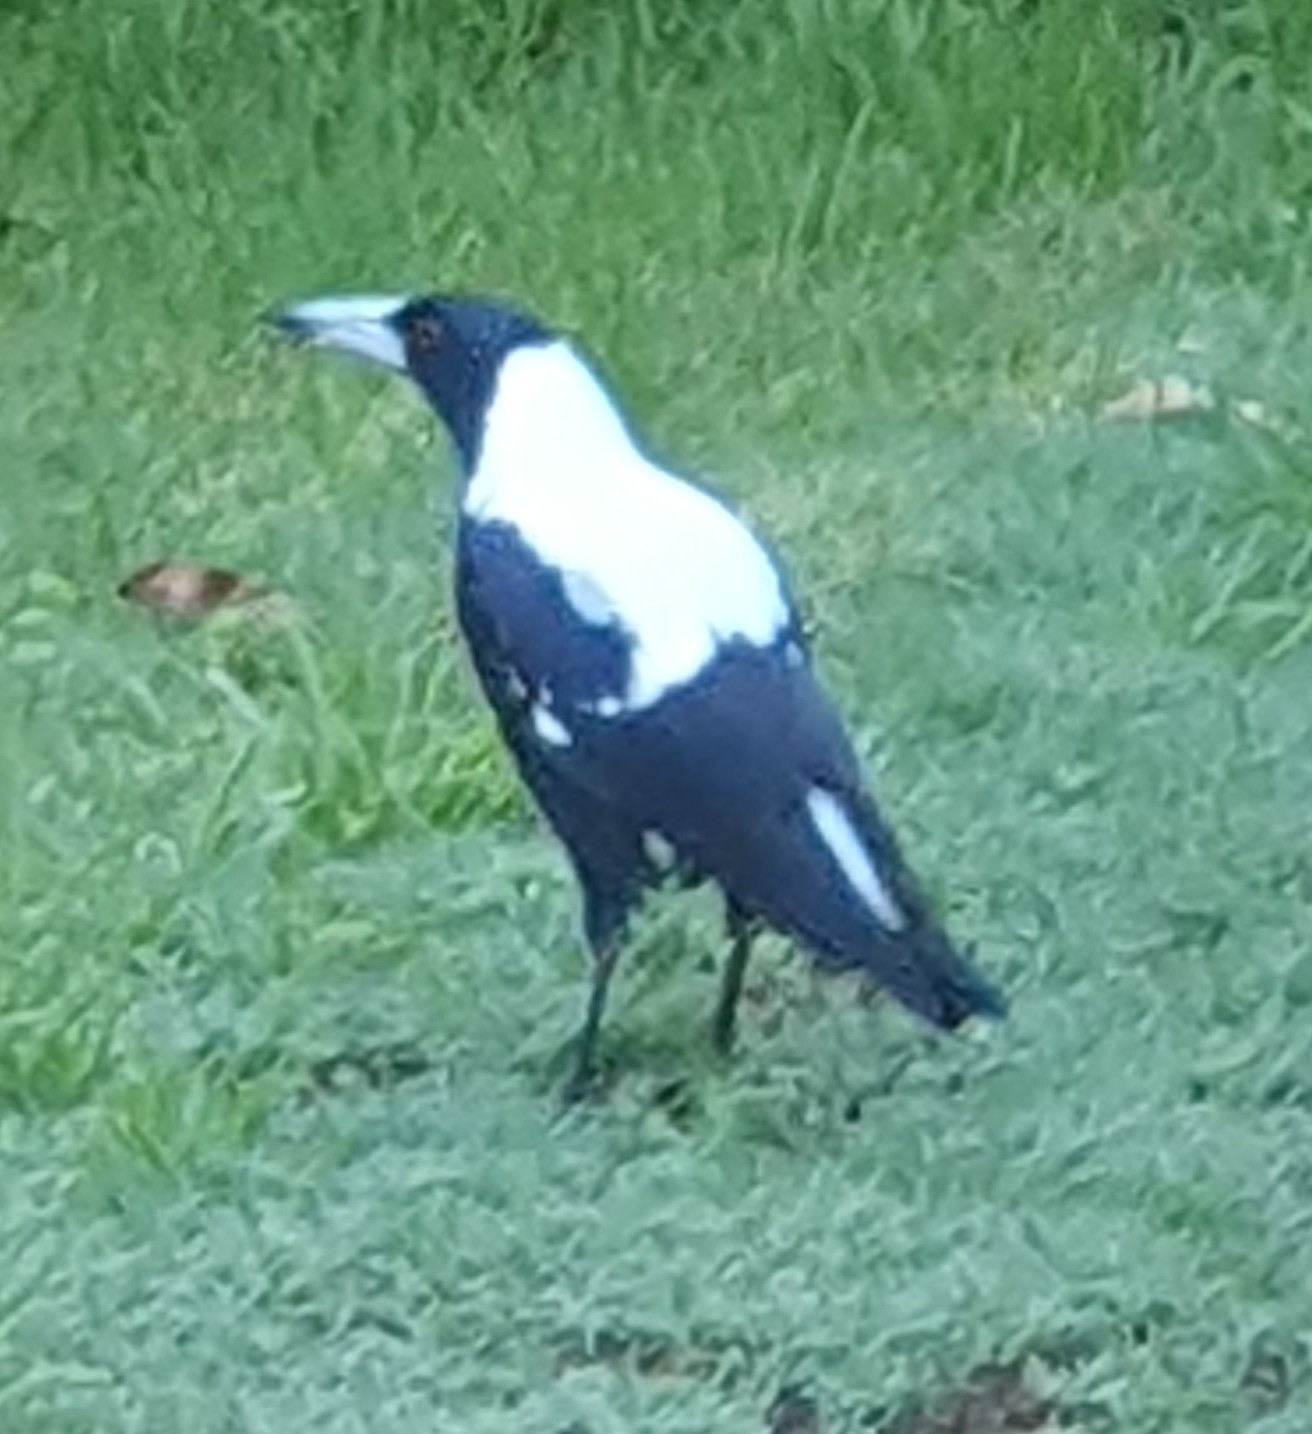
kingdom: Animalia
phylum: Chordata
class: Aves
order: Passeriformes
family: Cracticidae
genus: Gymnorhina
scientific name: Gymnorhina tibicen
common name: Australian magpie
